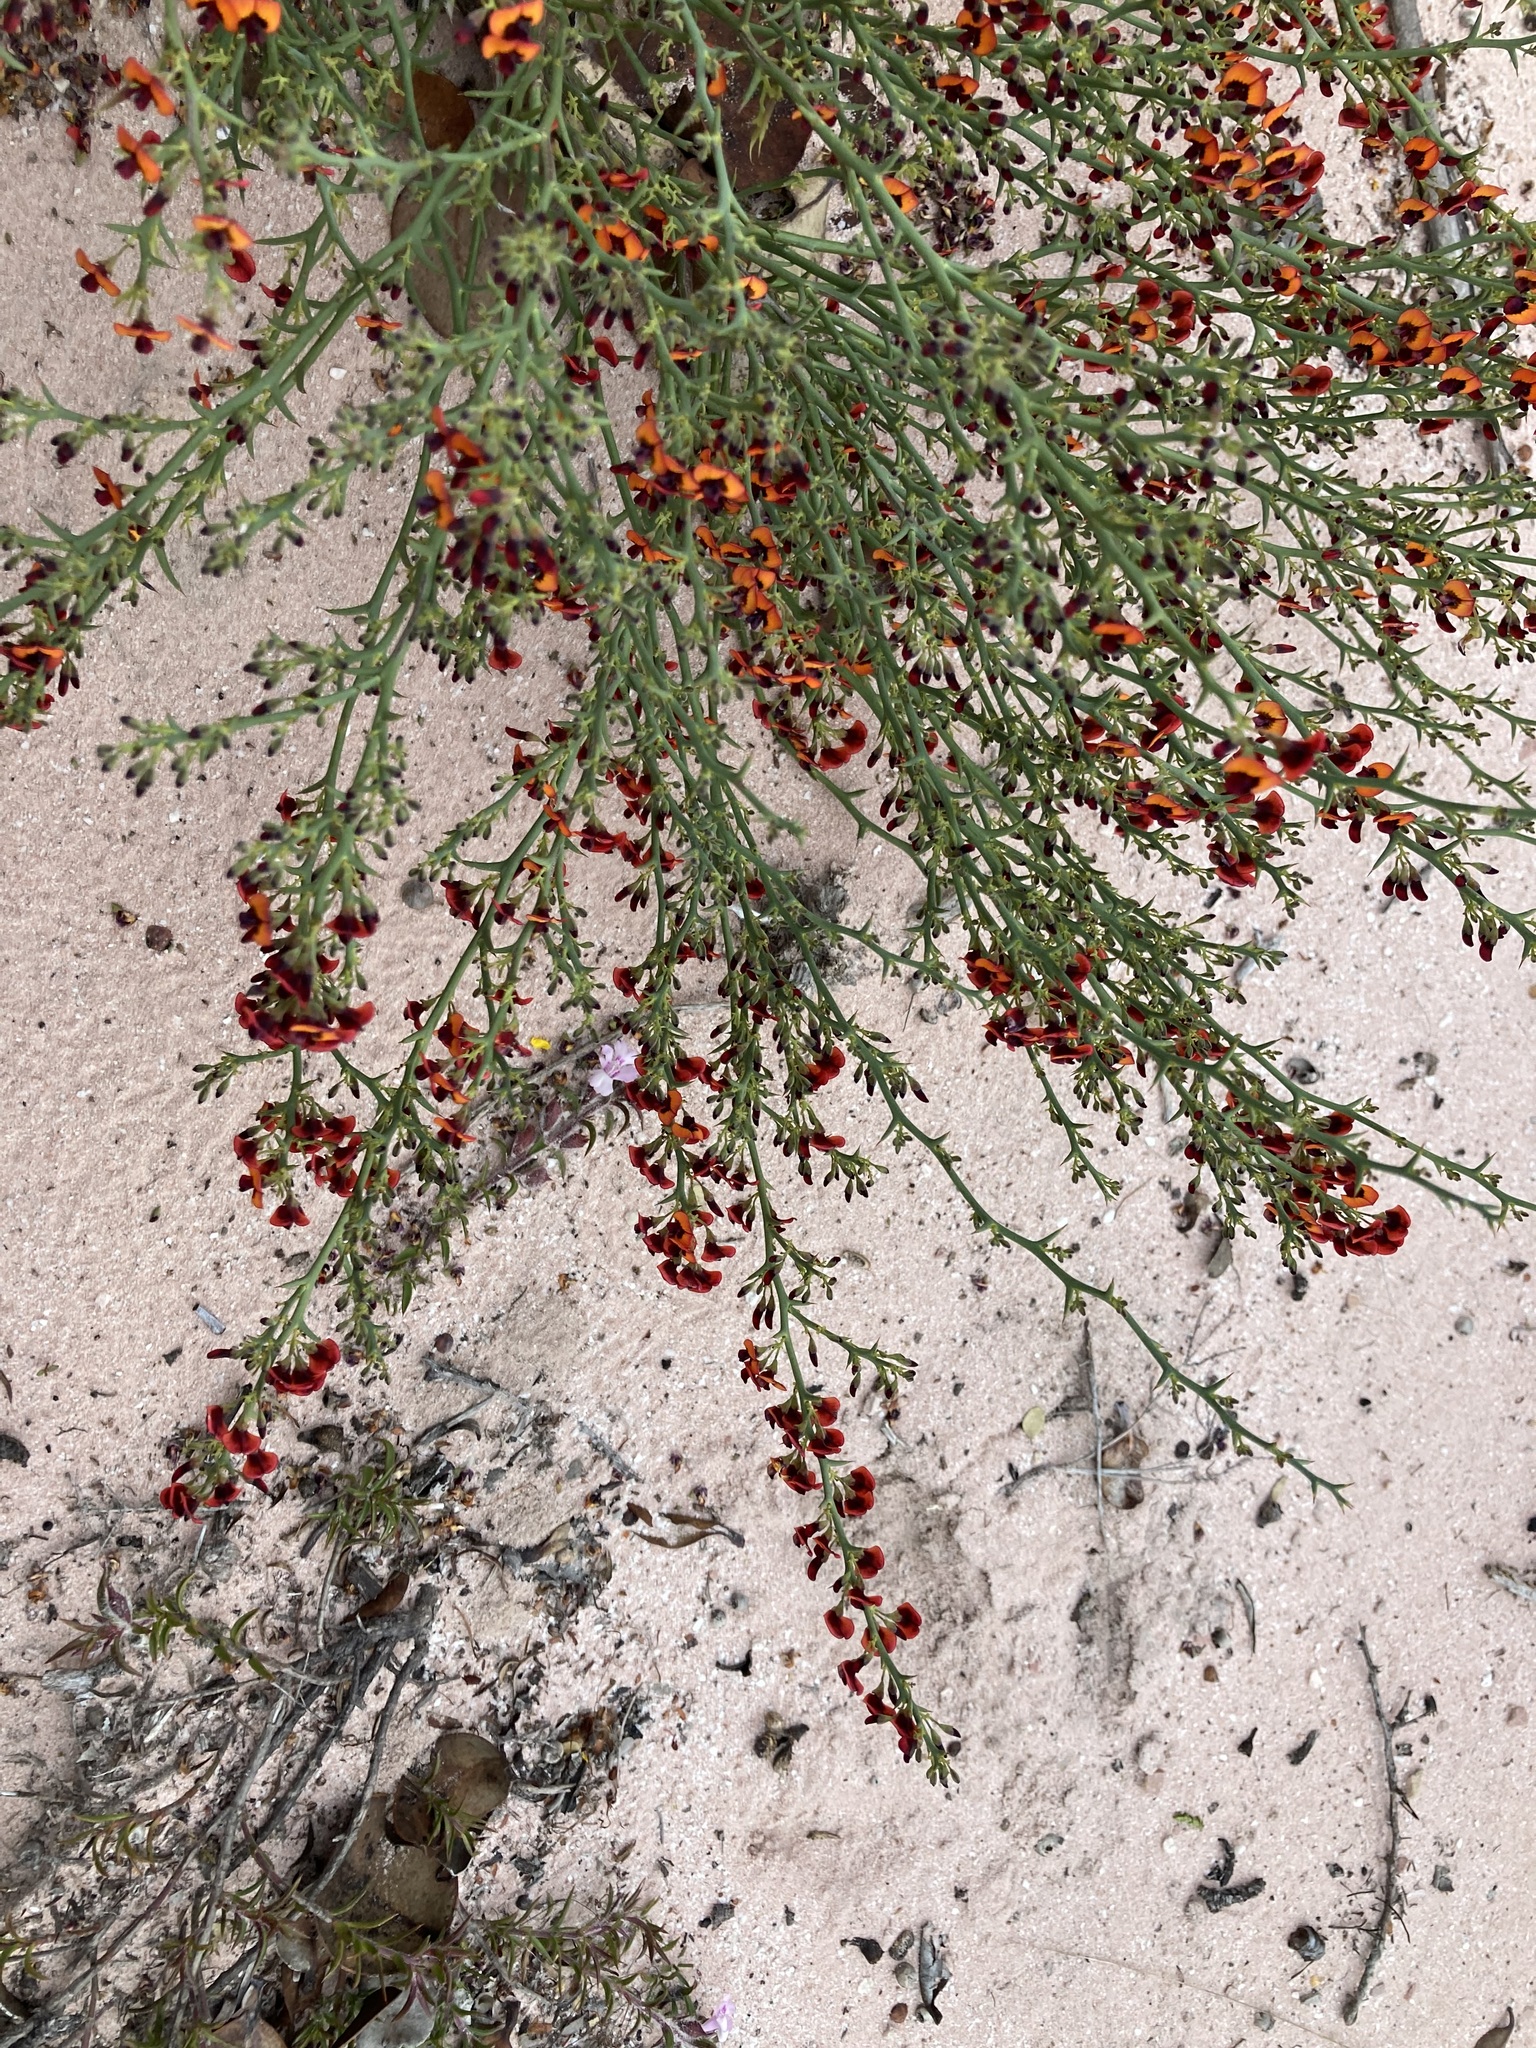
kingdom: Plantae
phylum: Tracheophyta
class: Magnoliopsida
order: Fabales
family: Fabaceae
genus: Daviesia
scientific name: Daviesia incrassata
